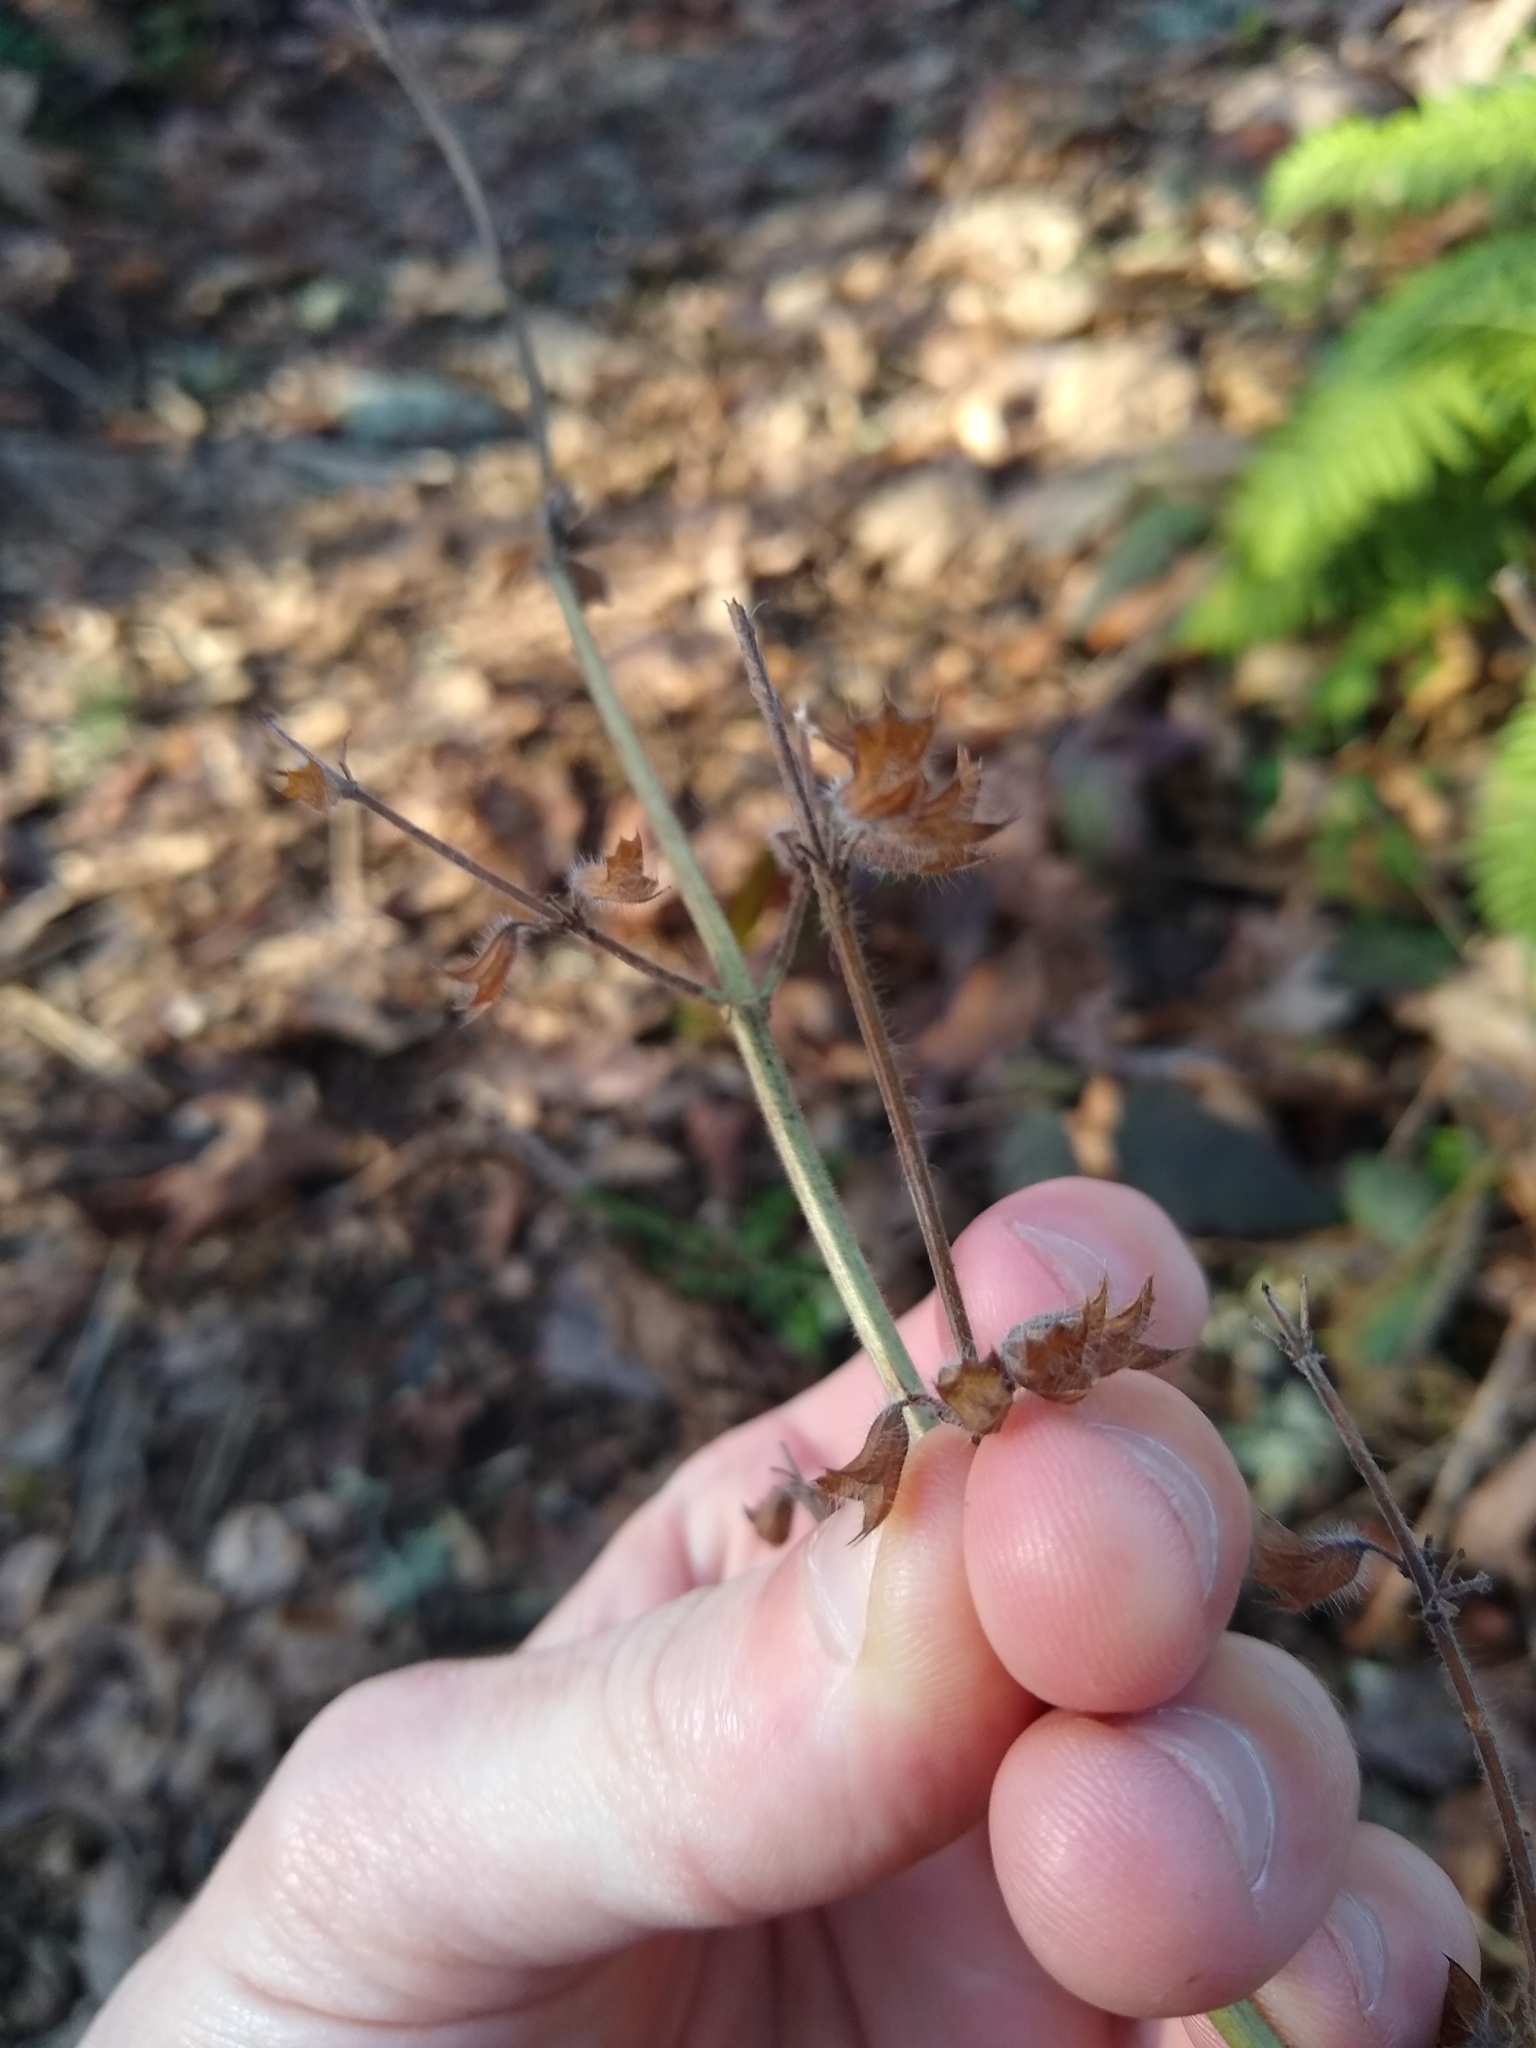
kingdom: Plantae
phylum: Tracheophyta
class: Magnoliopsida
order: Lamiales
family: Lamiaceae
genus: Melissa
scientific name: Melissa officinalis
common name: Balm
